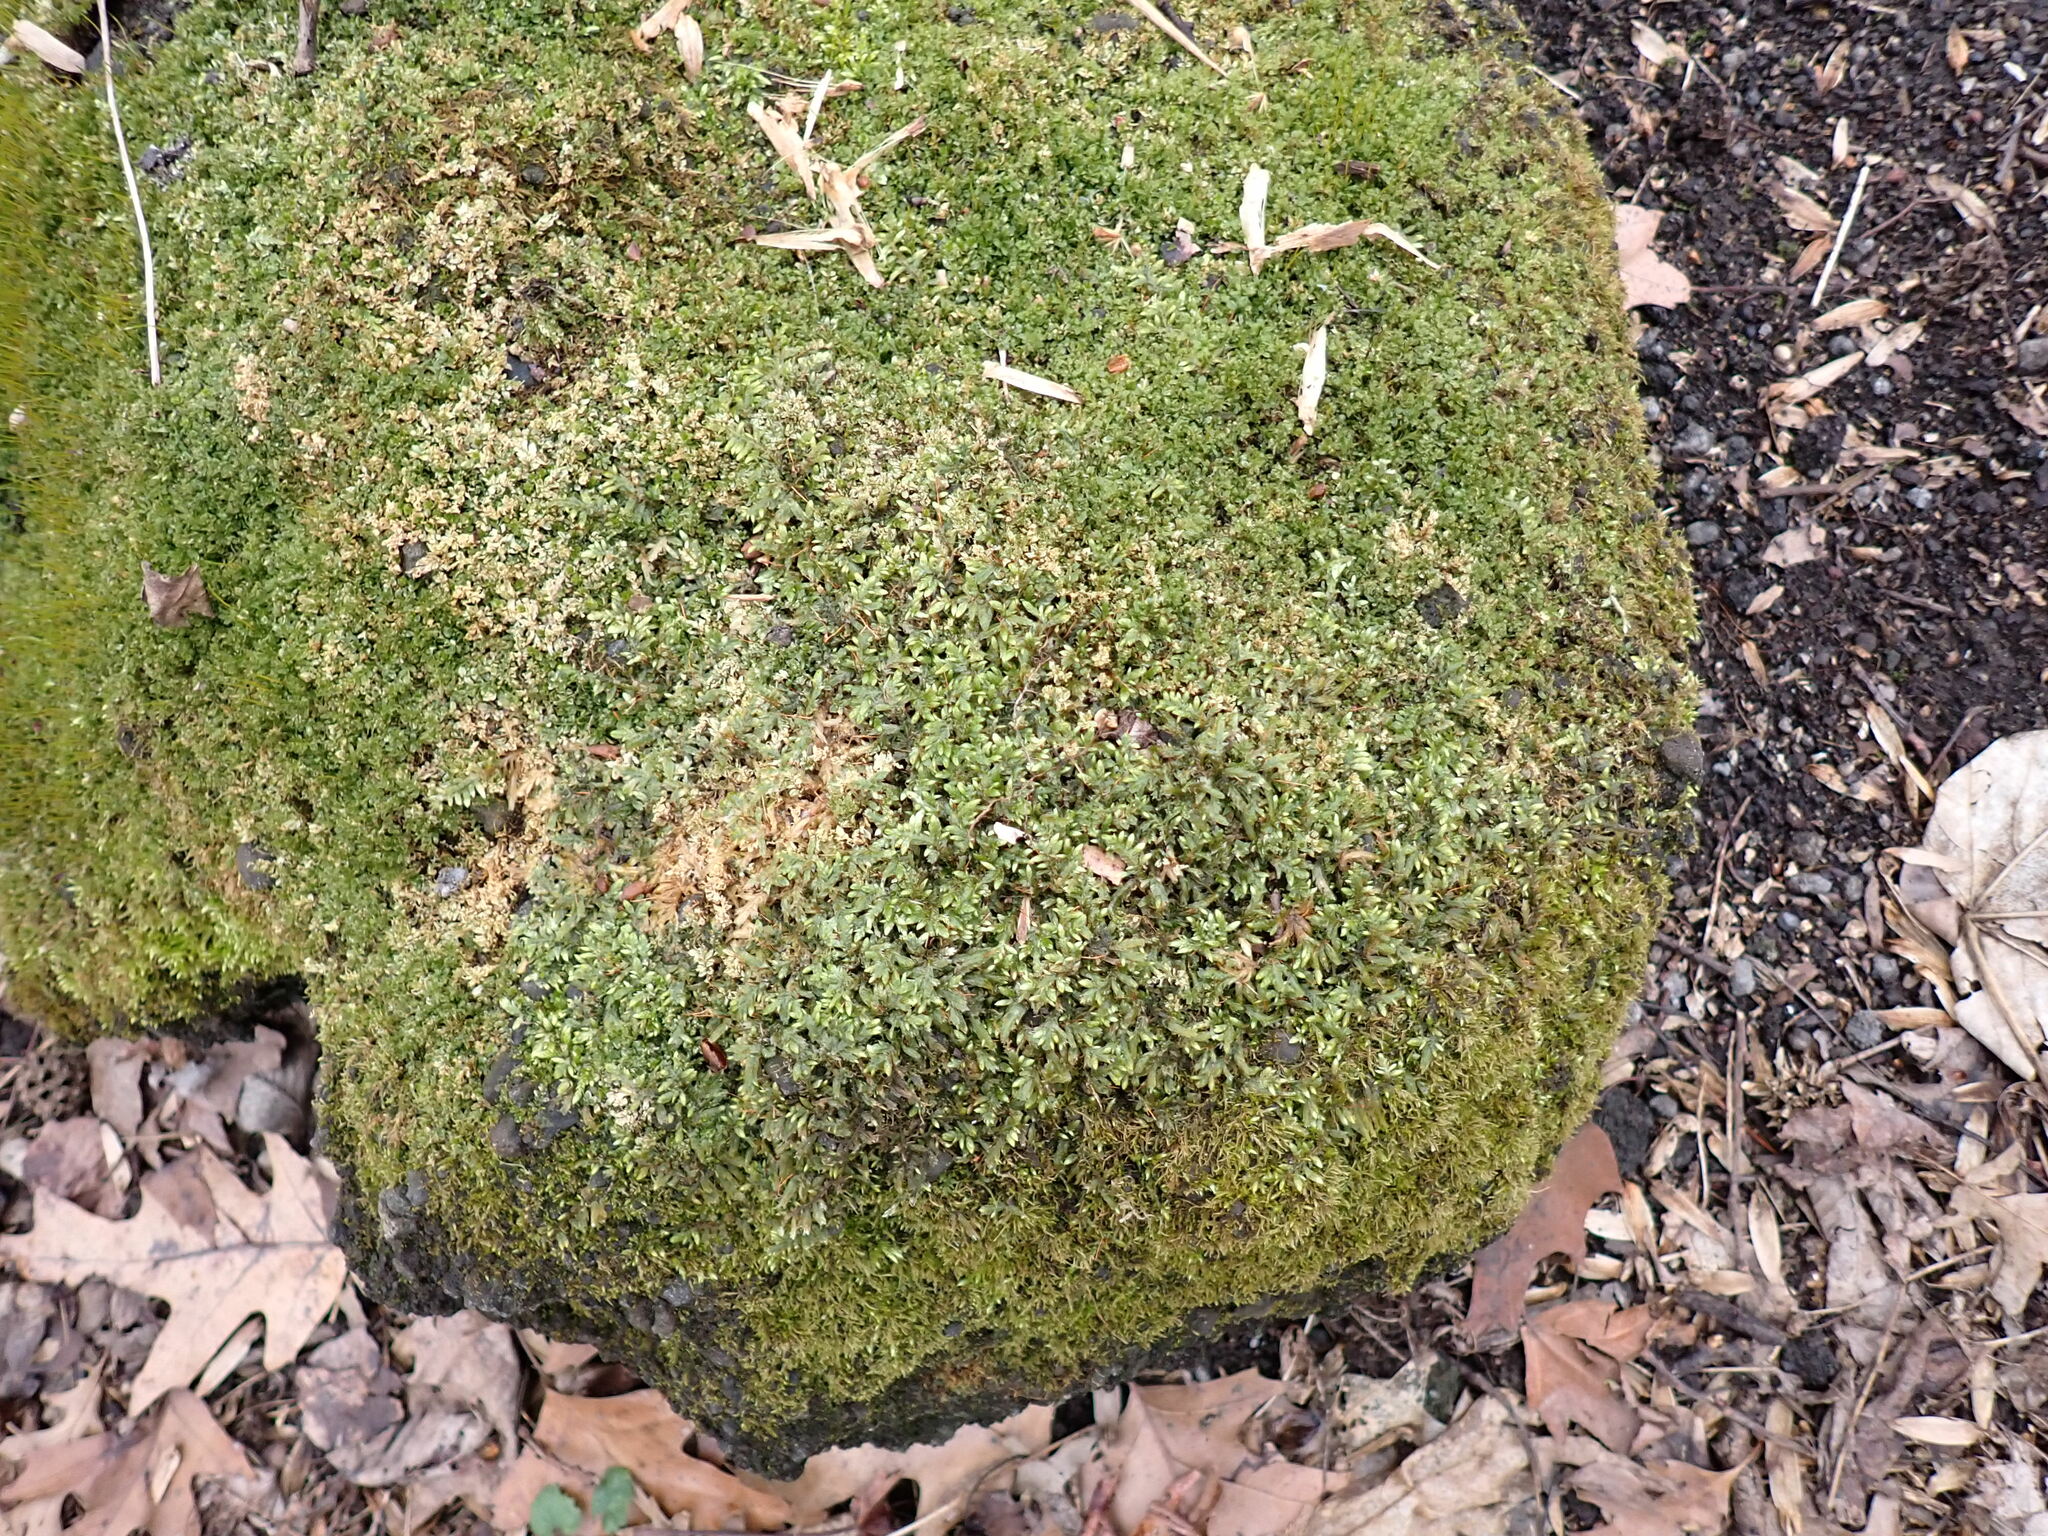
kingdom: Plantae
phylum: Bryophyta
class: Bryopsida
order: Hypnales
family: Entodontaceae
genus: Entodon
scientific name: Entodon cladorrhizans
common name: Flat-stemmed entodon moss
